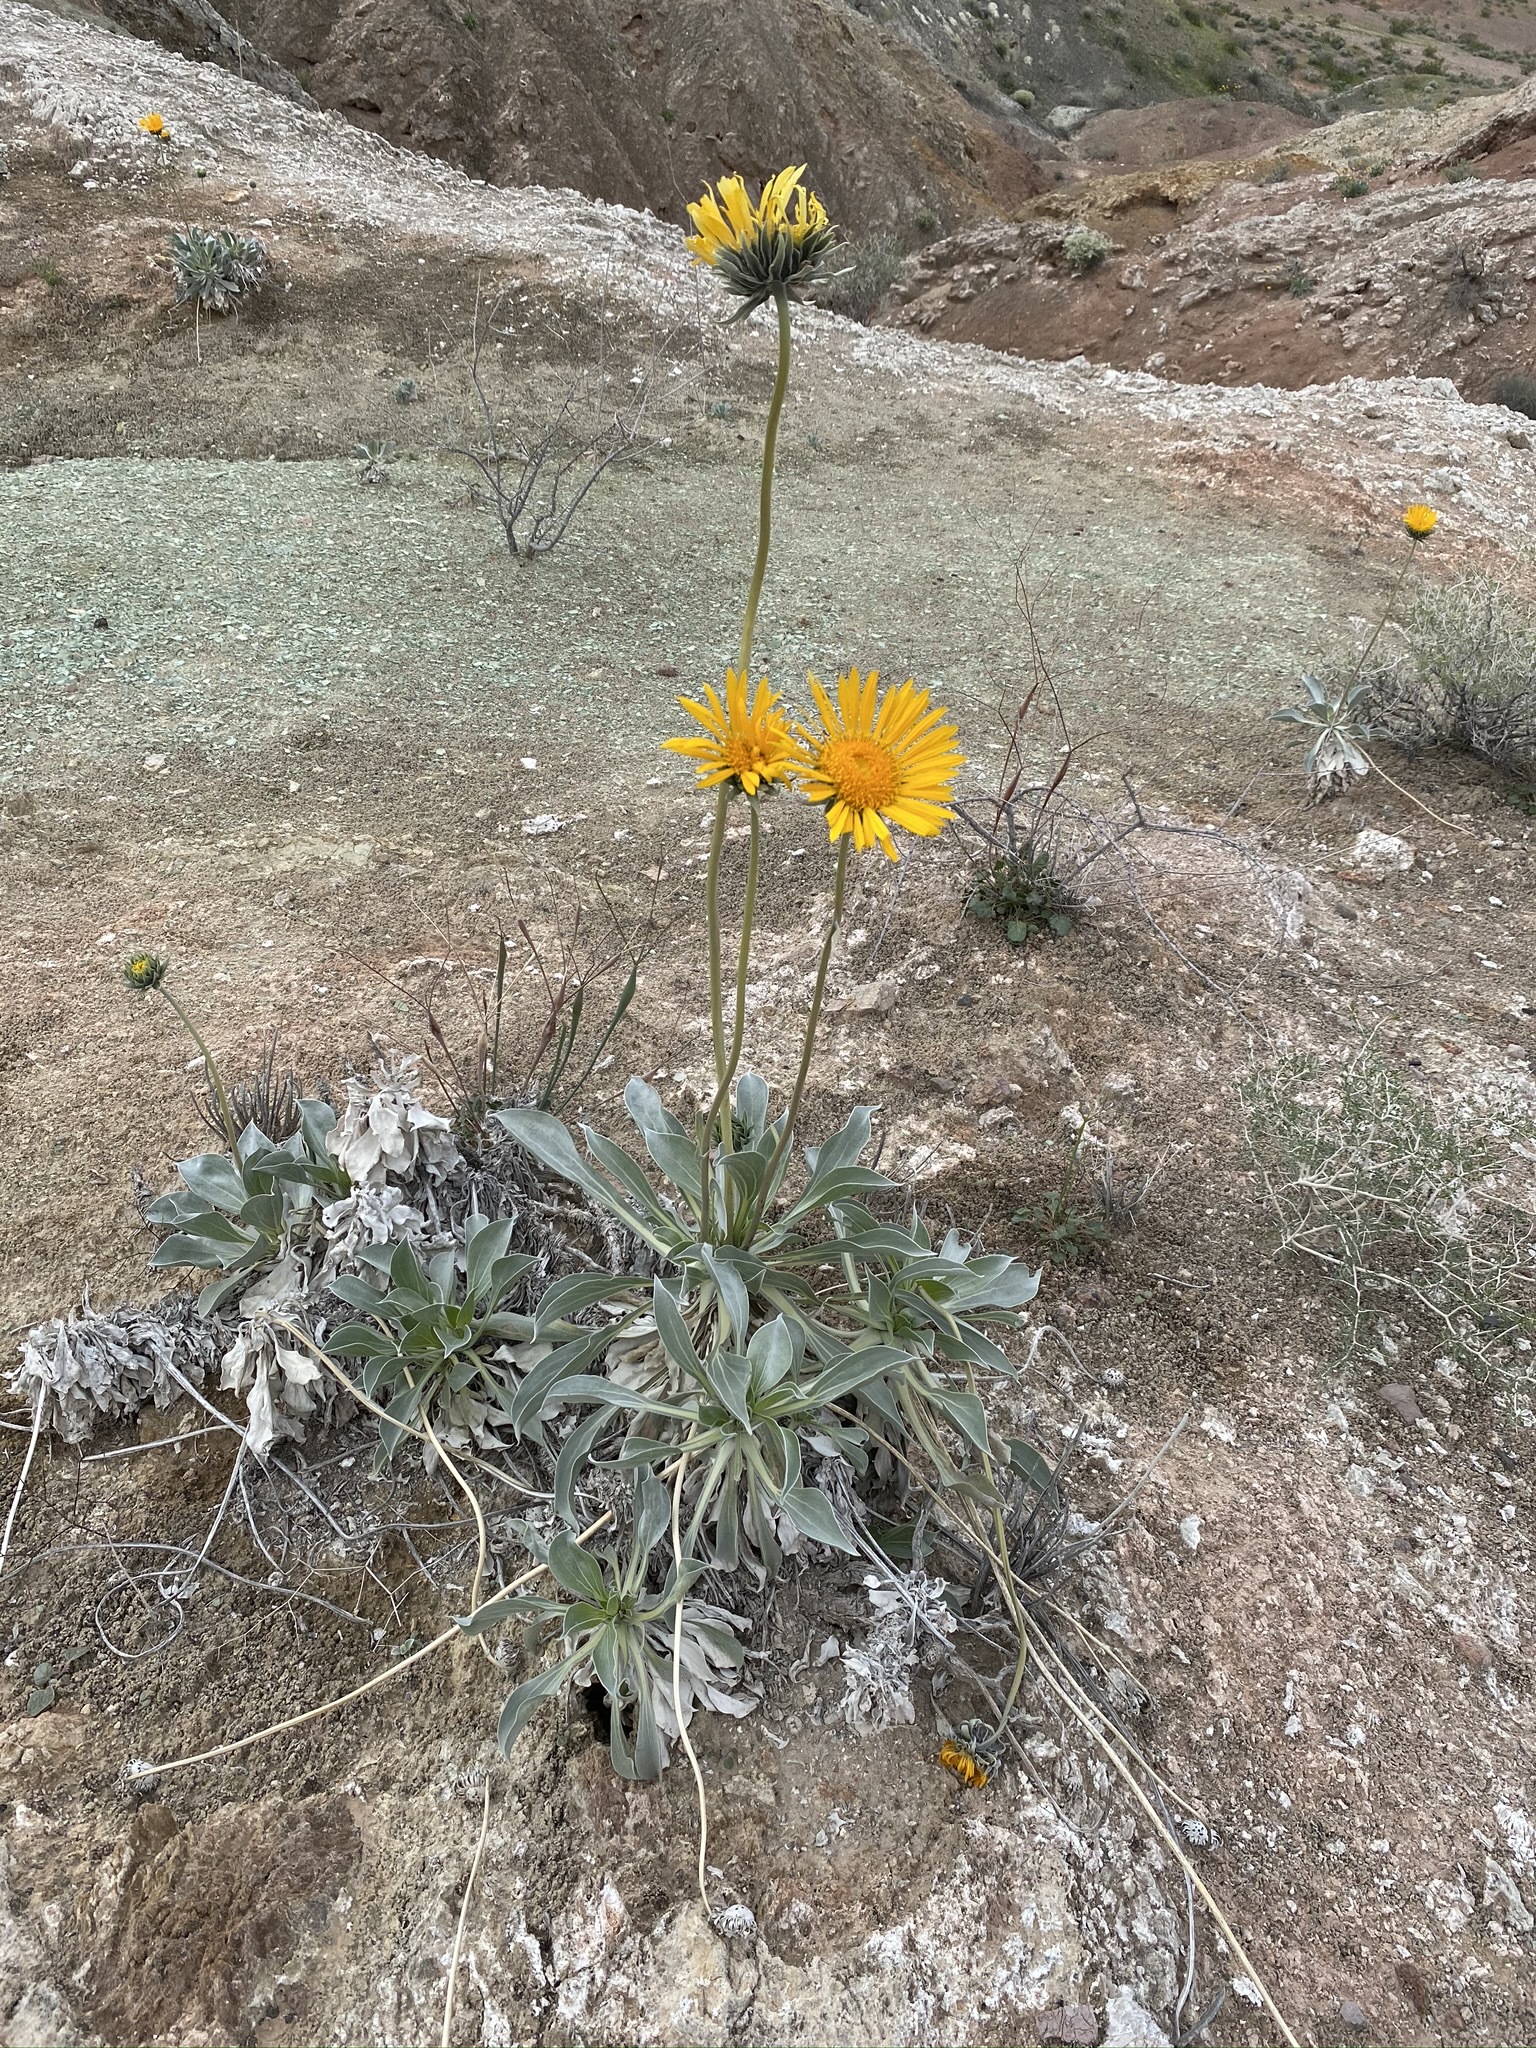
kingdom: Plantae
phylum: Tracheophyta
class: Magnoliopsida
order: Asterales
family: Asteraceae
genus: Enceliopsis
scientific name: Enceliopsis argophylla
